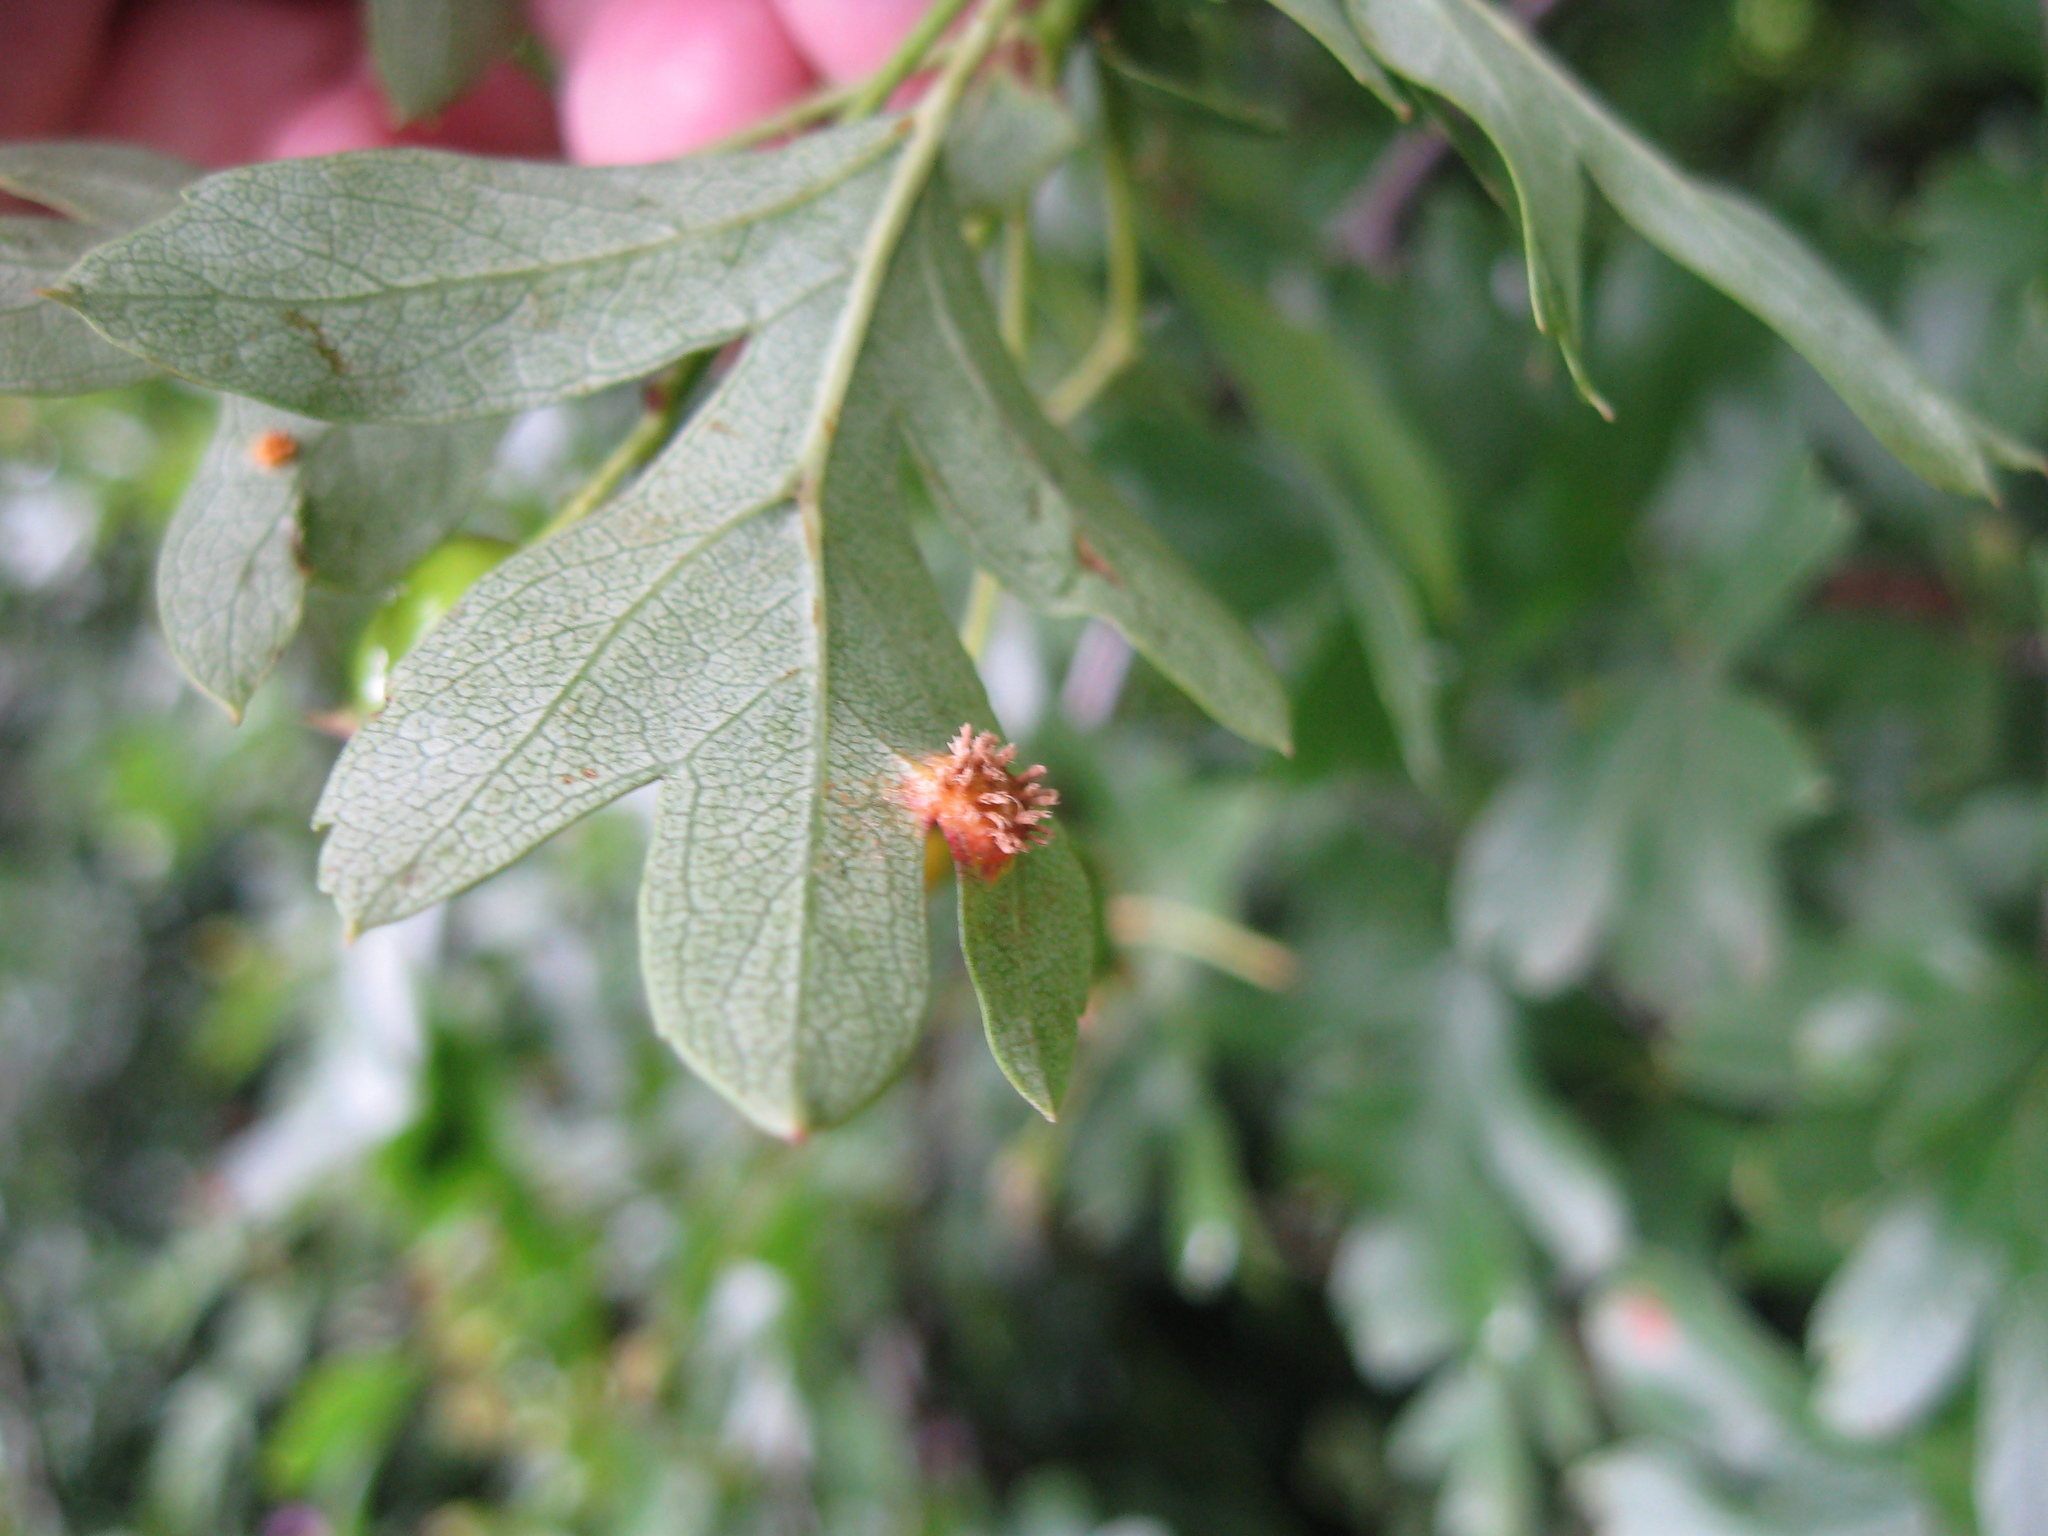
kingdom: Fungi
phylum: Basidiomycota
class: Pucciniomycetes
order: Pucciniales
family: Gymnosporangiaceae
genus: Gymnosporangium
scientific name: Gymnosporangium clavariiforme
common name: Tongues of fire
